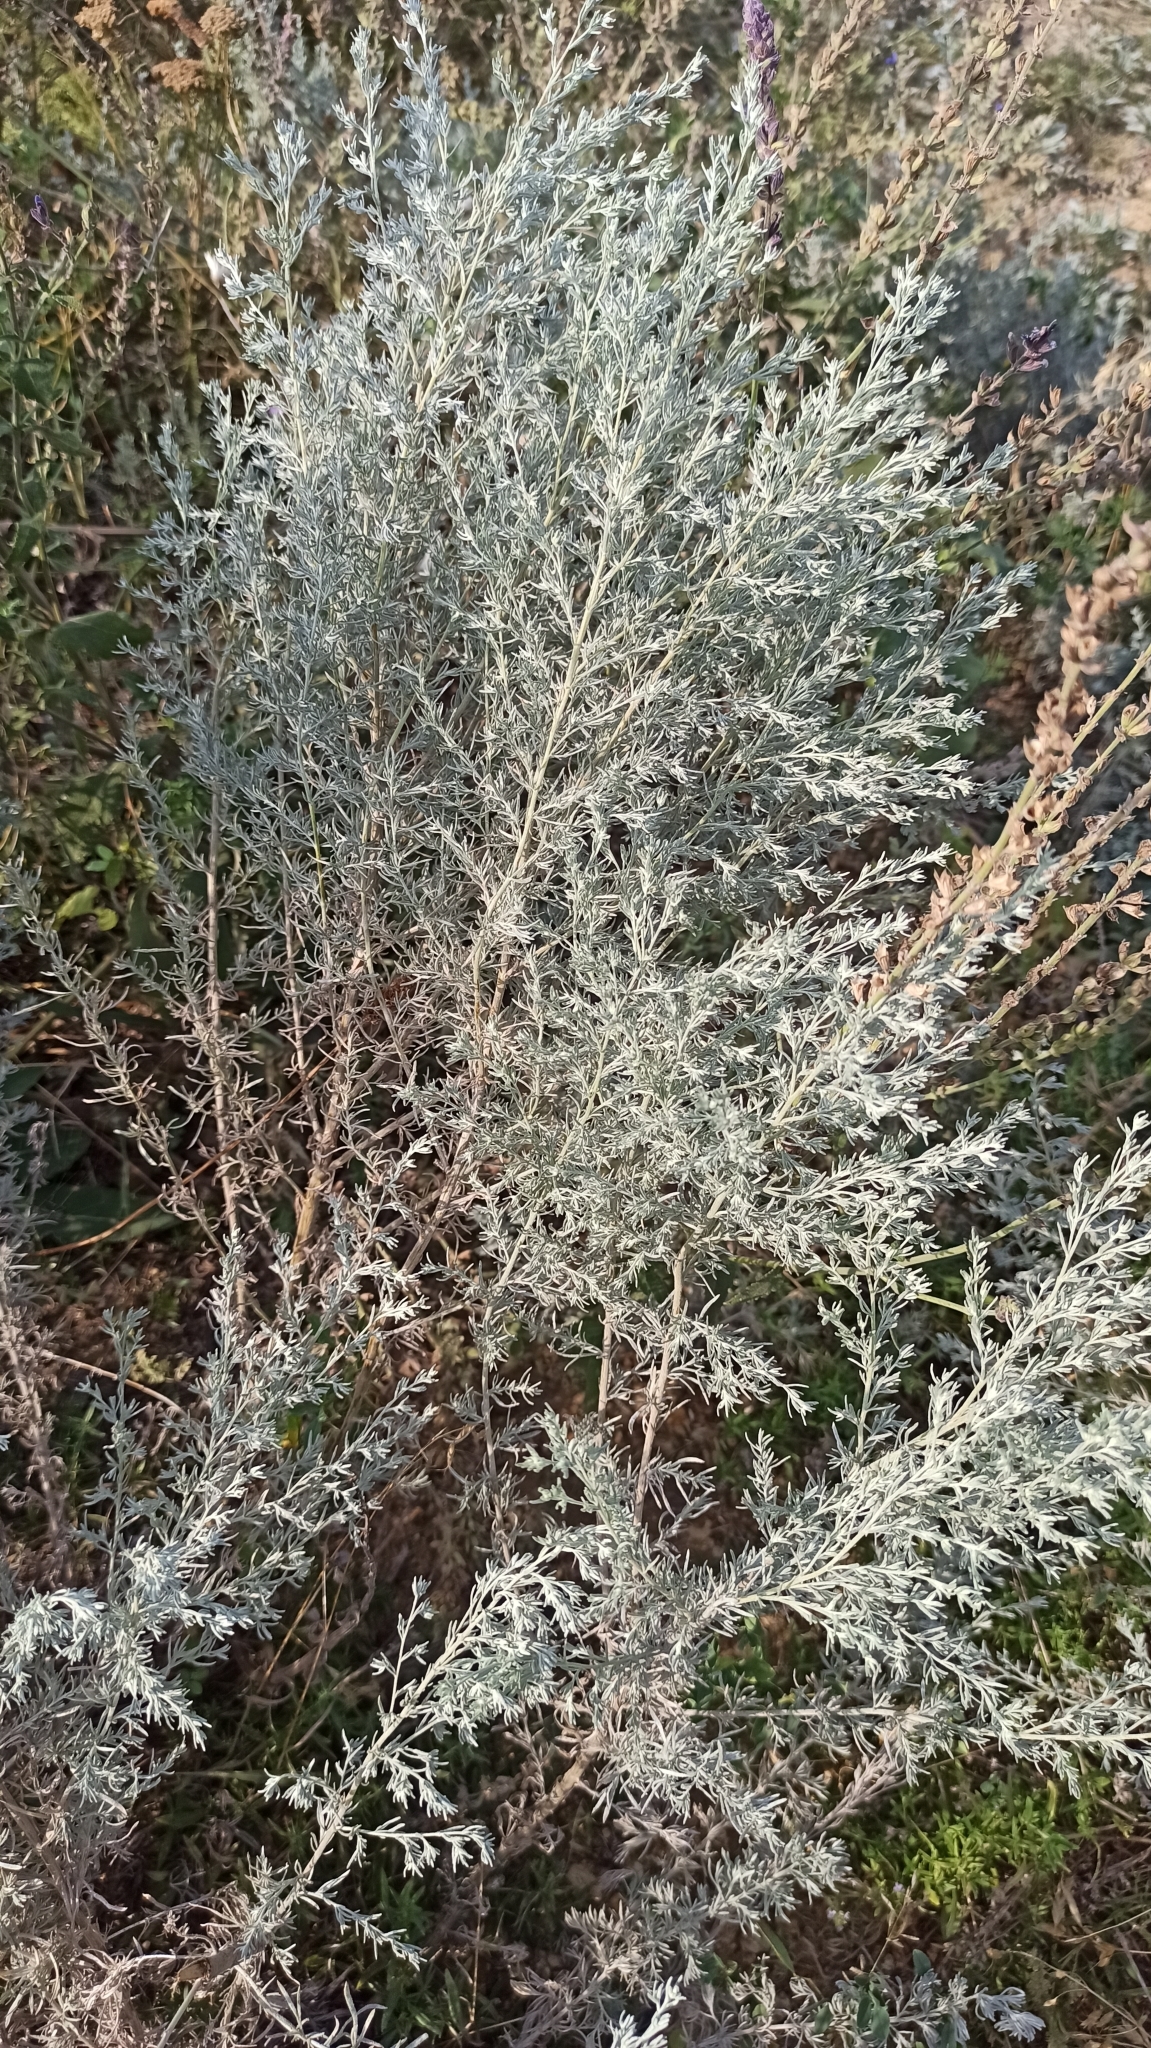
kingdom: Plantae
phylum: Tracheophyta
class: Magnoliopsida
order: Asterales
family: Asteraceae
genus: Artemisia
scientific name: Artemisia austriaca
